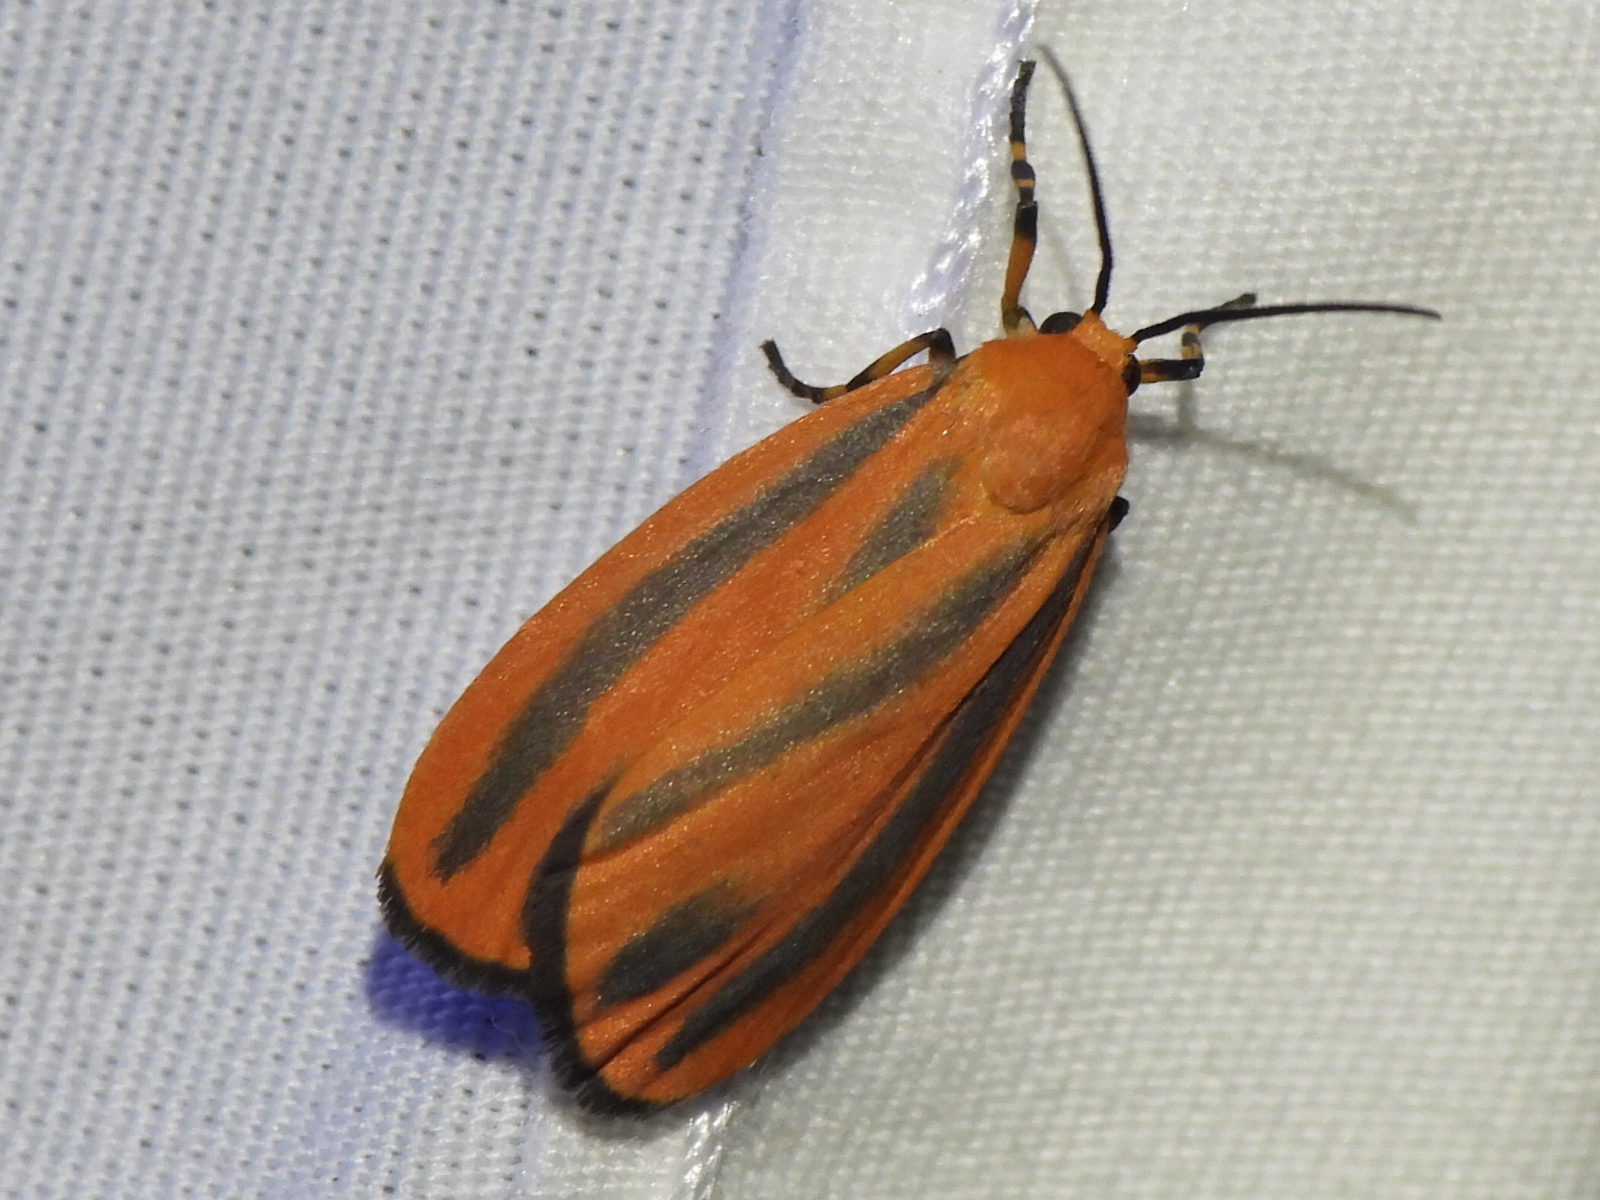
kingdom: Animalia
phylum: Arthropoda
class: Insecta
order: Lepidoptera
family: Erebidae
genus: Hypoprepia
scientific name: Hypoprepia miniata
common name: Scarlet-winged lichen moth
